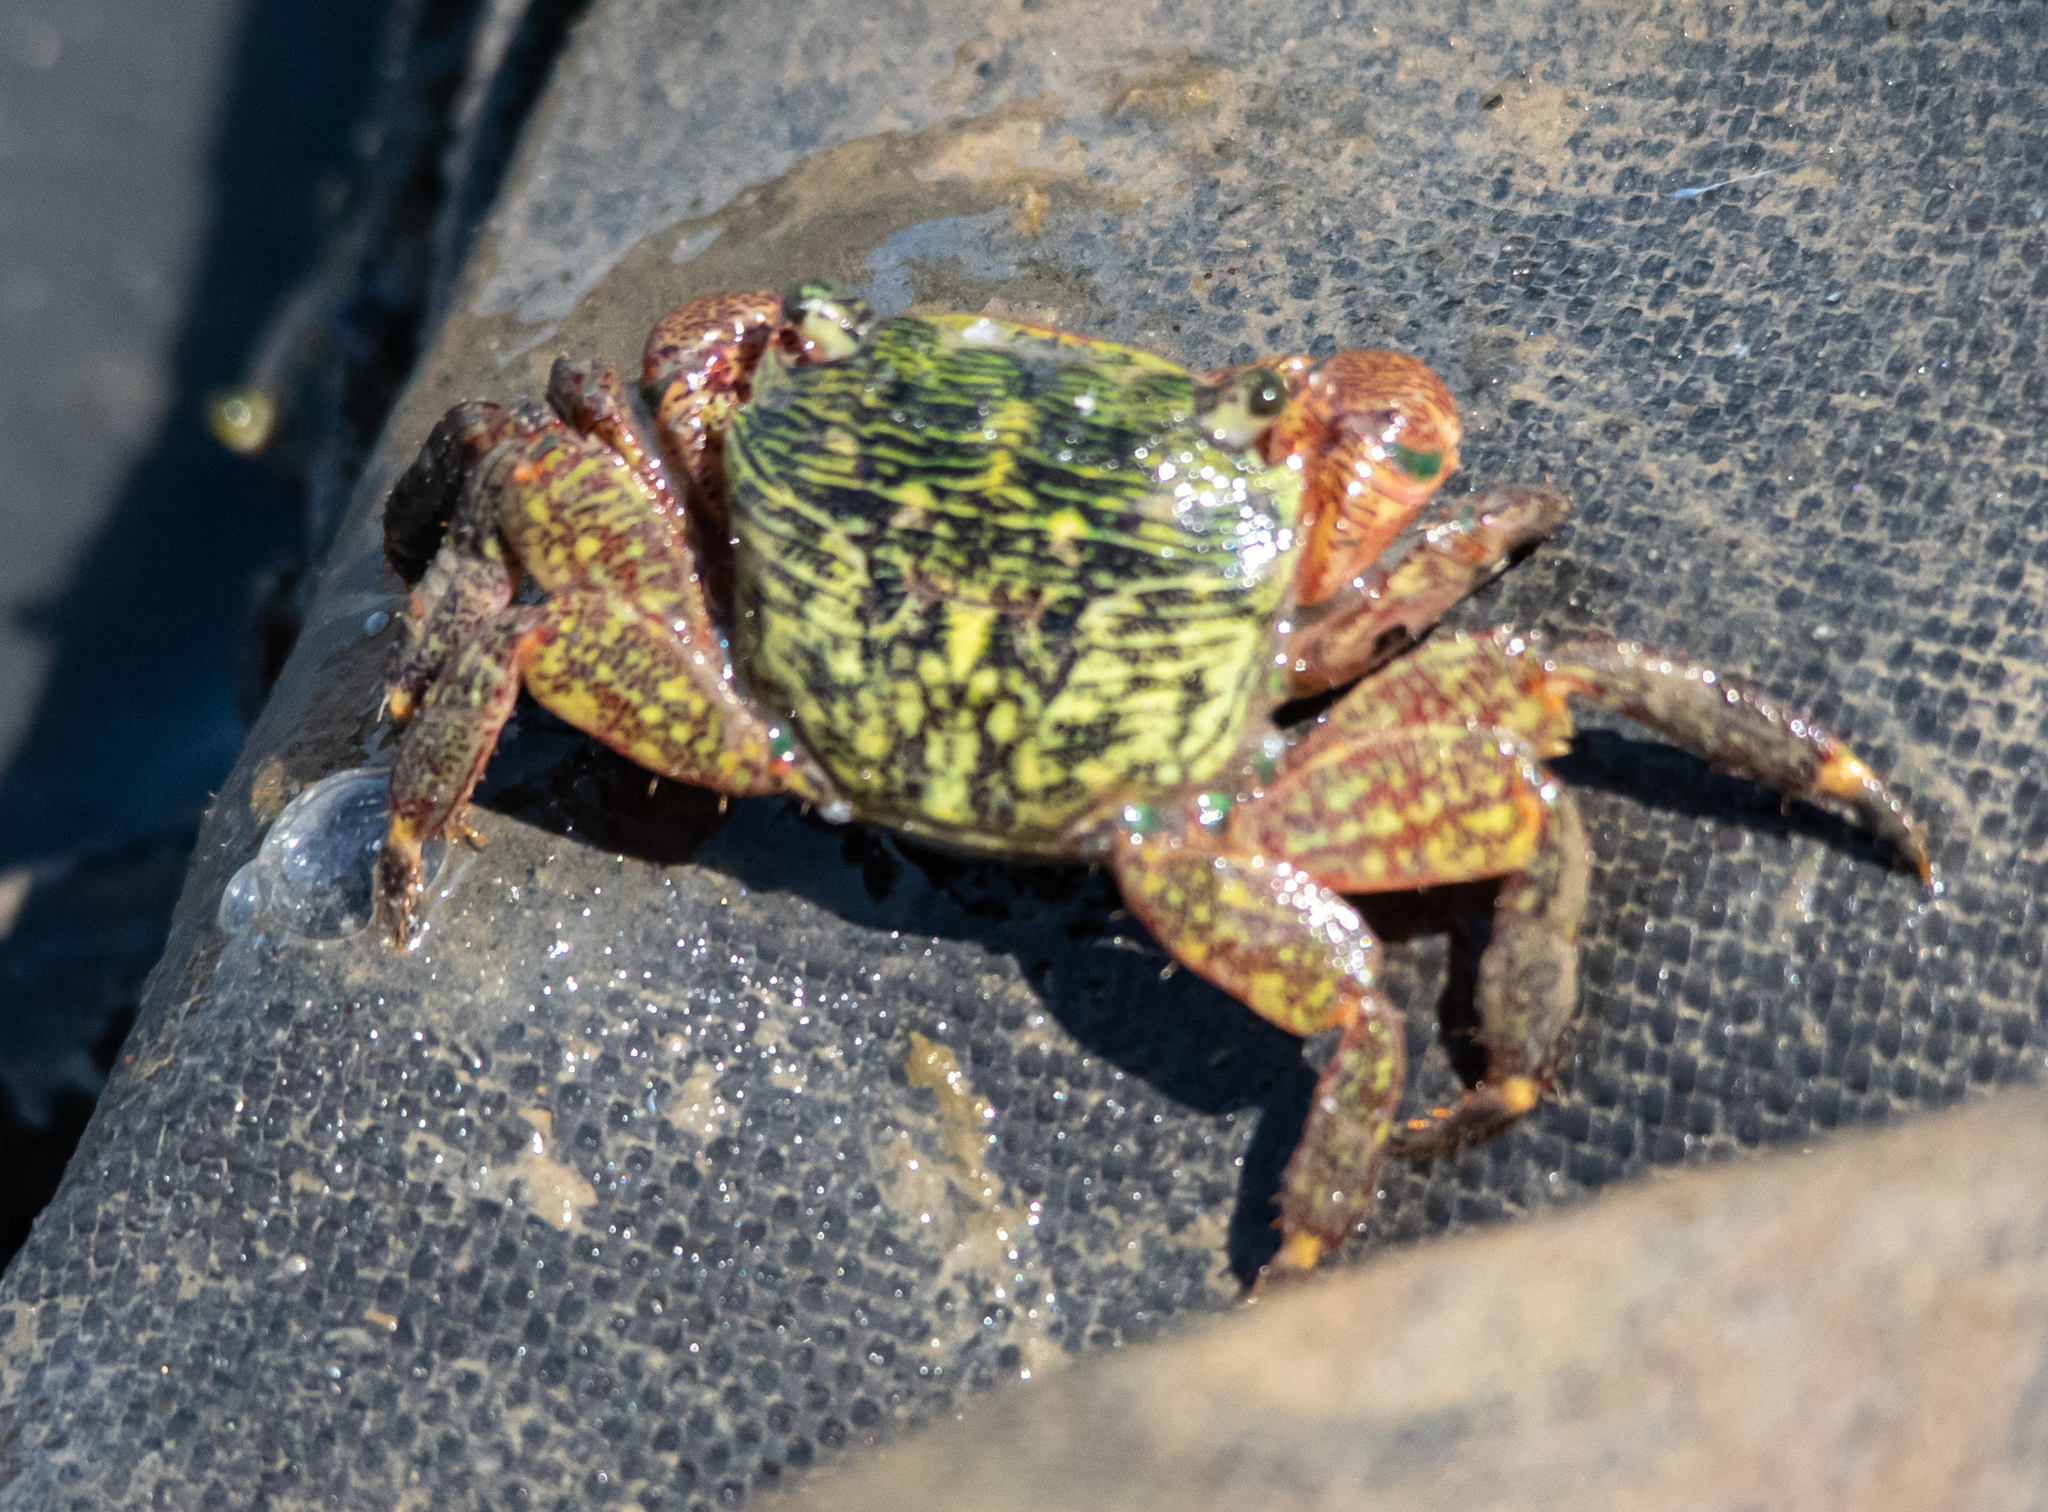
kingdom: Animalia
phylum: Arthropoda
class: Malacostraca
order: Decapoda
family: Grapsidae
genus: Pachygrapsus
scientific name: Pachygrapsus crassipes
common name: Striped shore crab
